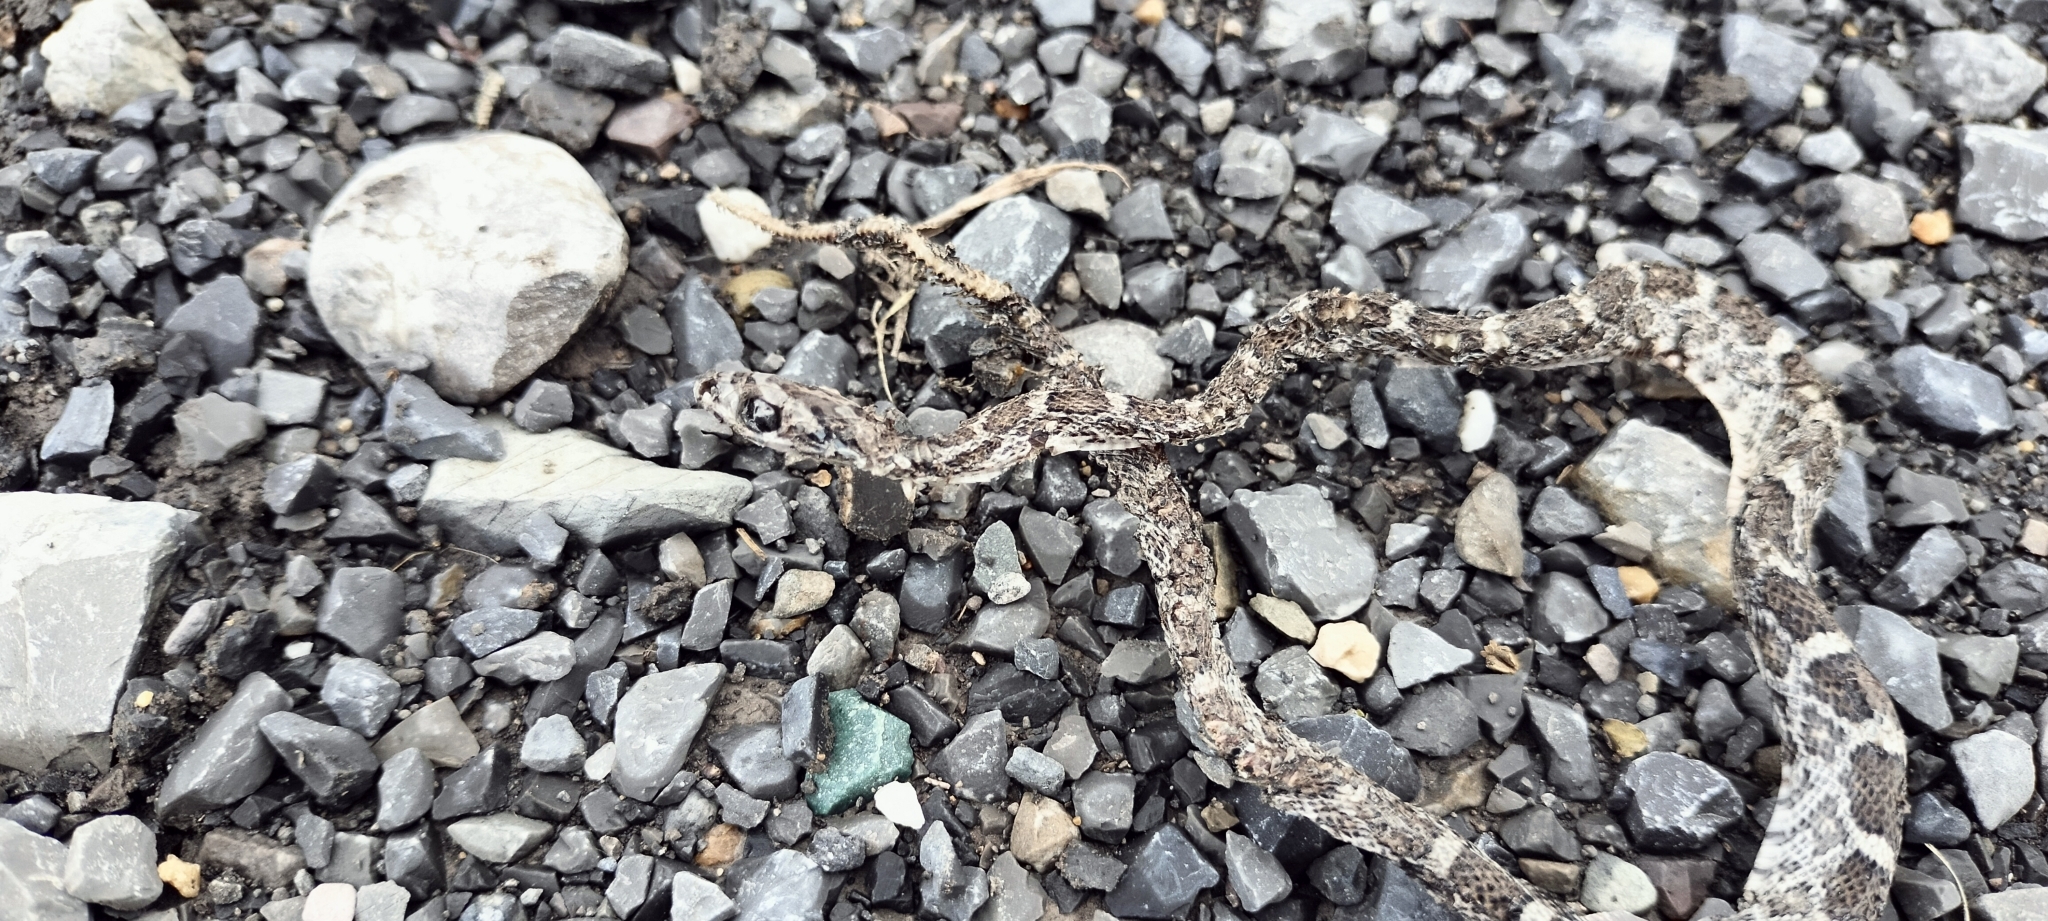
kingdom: Animalia
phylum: Chordata
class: Squamata
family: Colubridae
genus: Pantherophis
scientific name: Pantherophis emoryi
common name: Great plains rat snake
